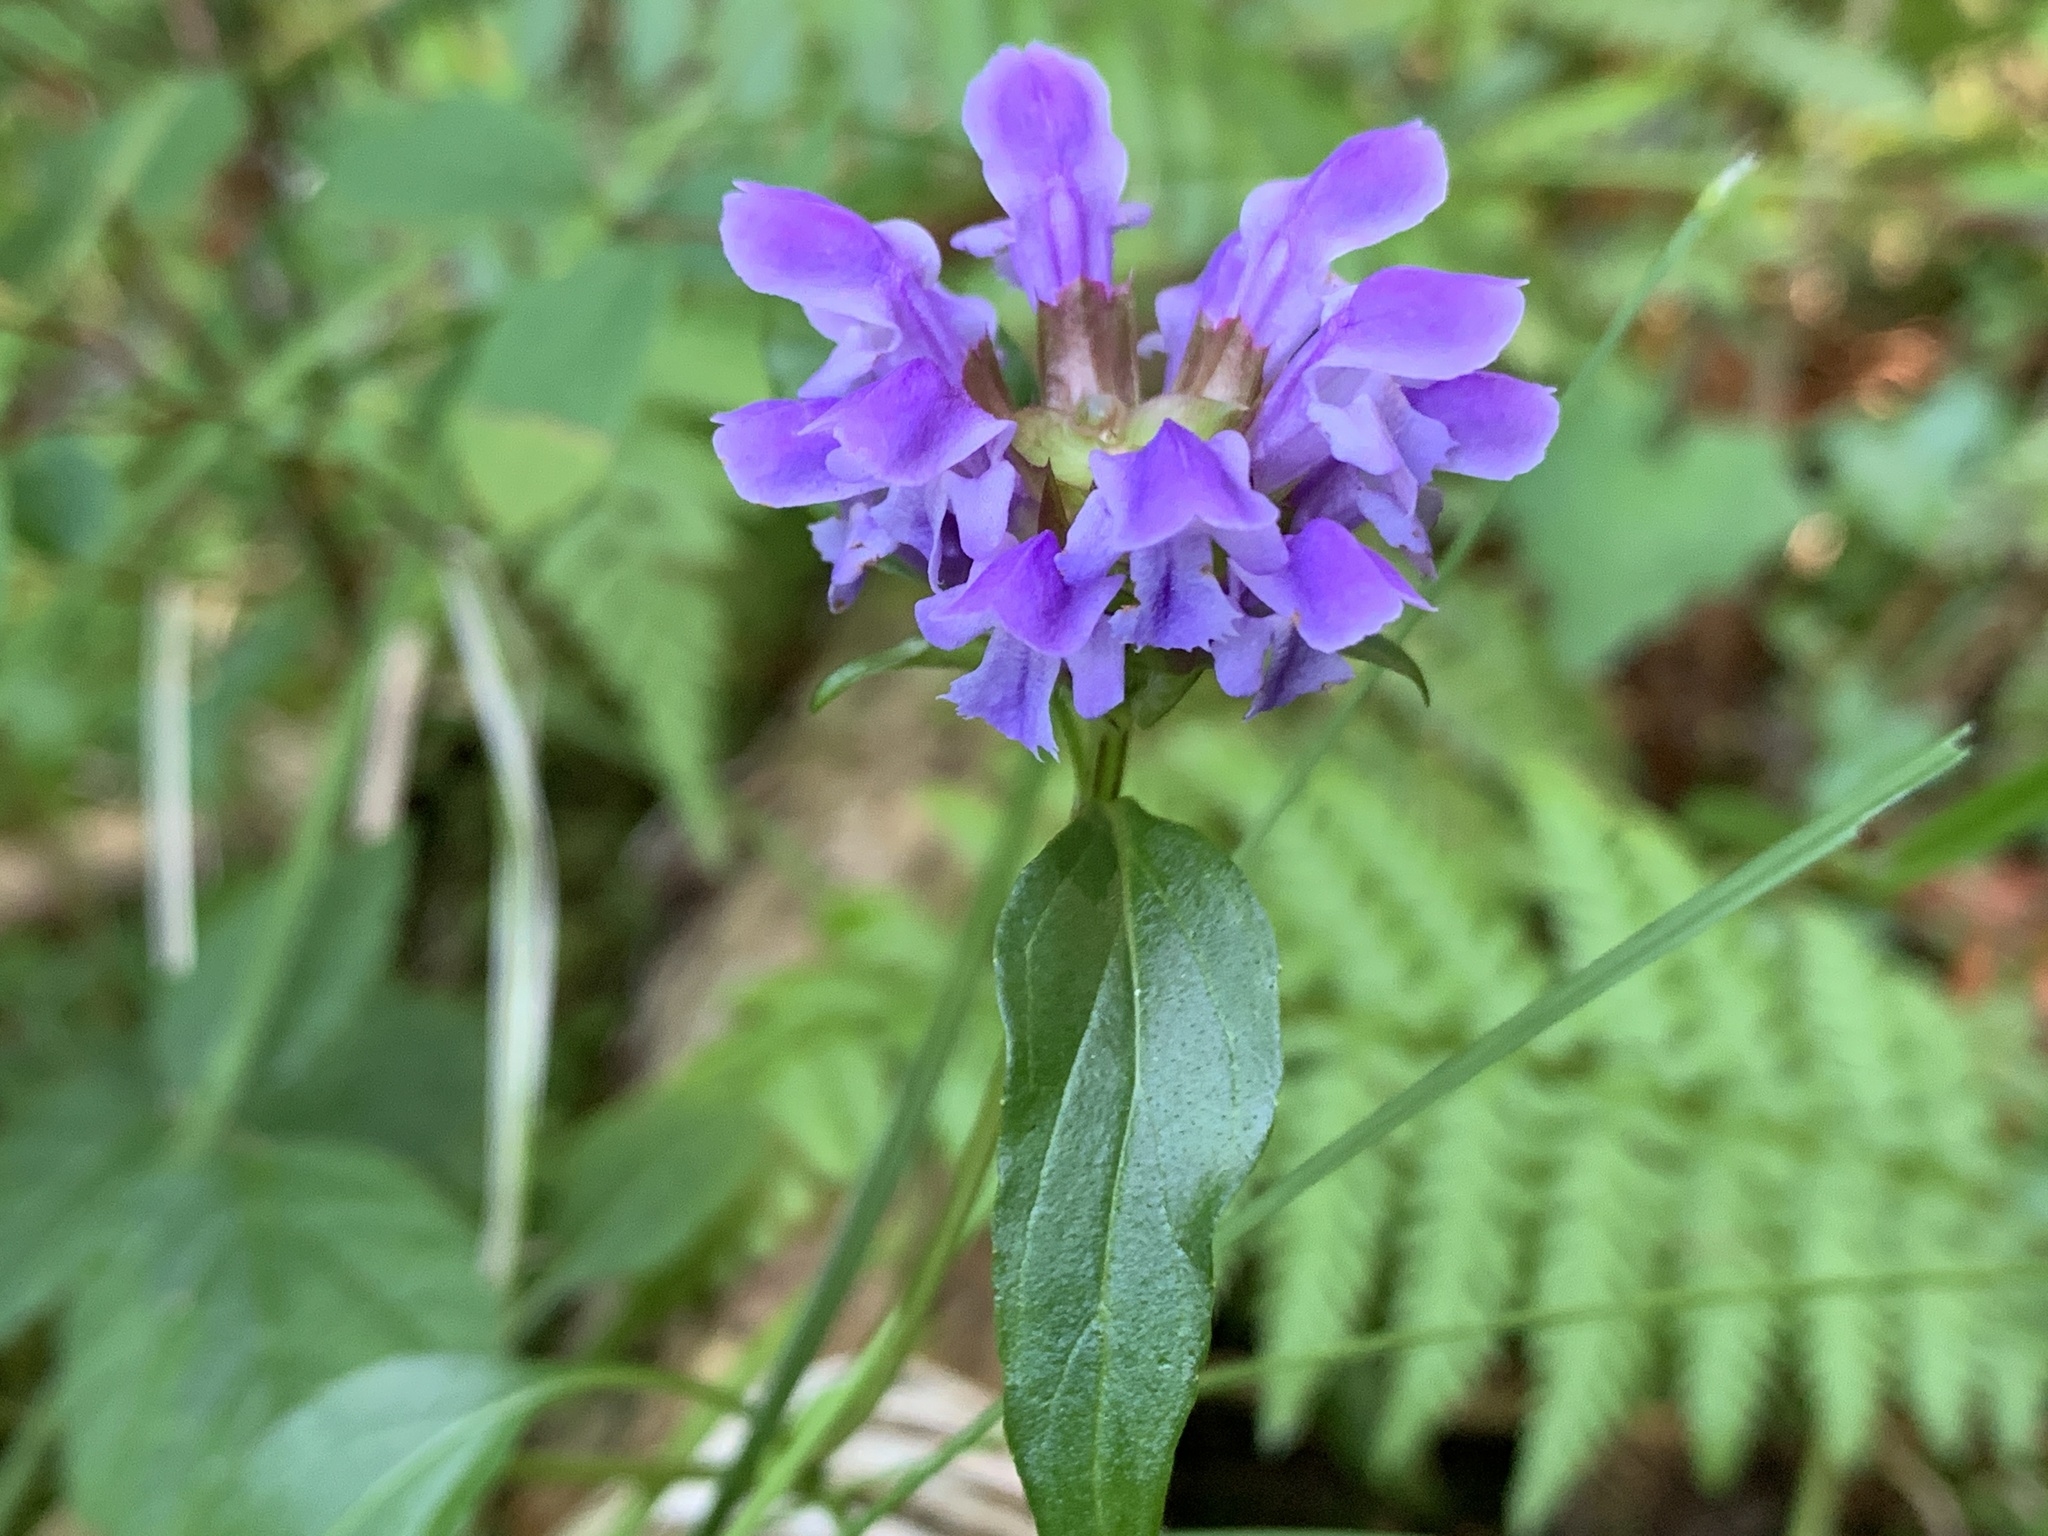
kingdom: Plantae
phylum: Tracheophyta
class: Magnoliopsida
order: Lamiales
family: Lamiaceae
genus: Prunella
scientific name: Prunella vulgaris
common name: Heal-all
